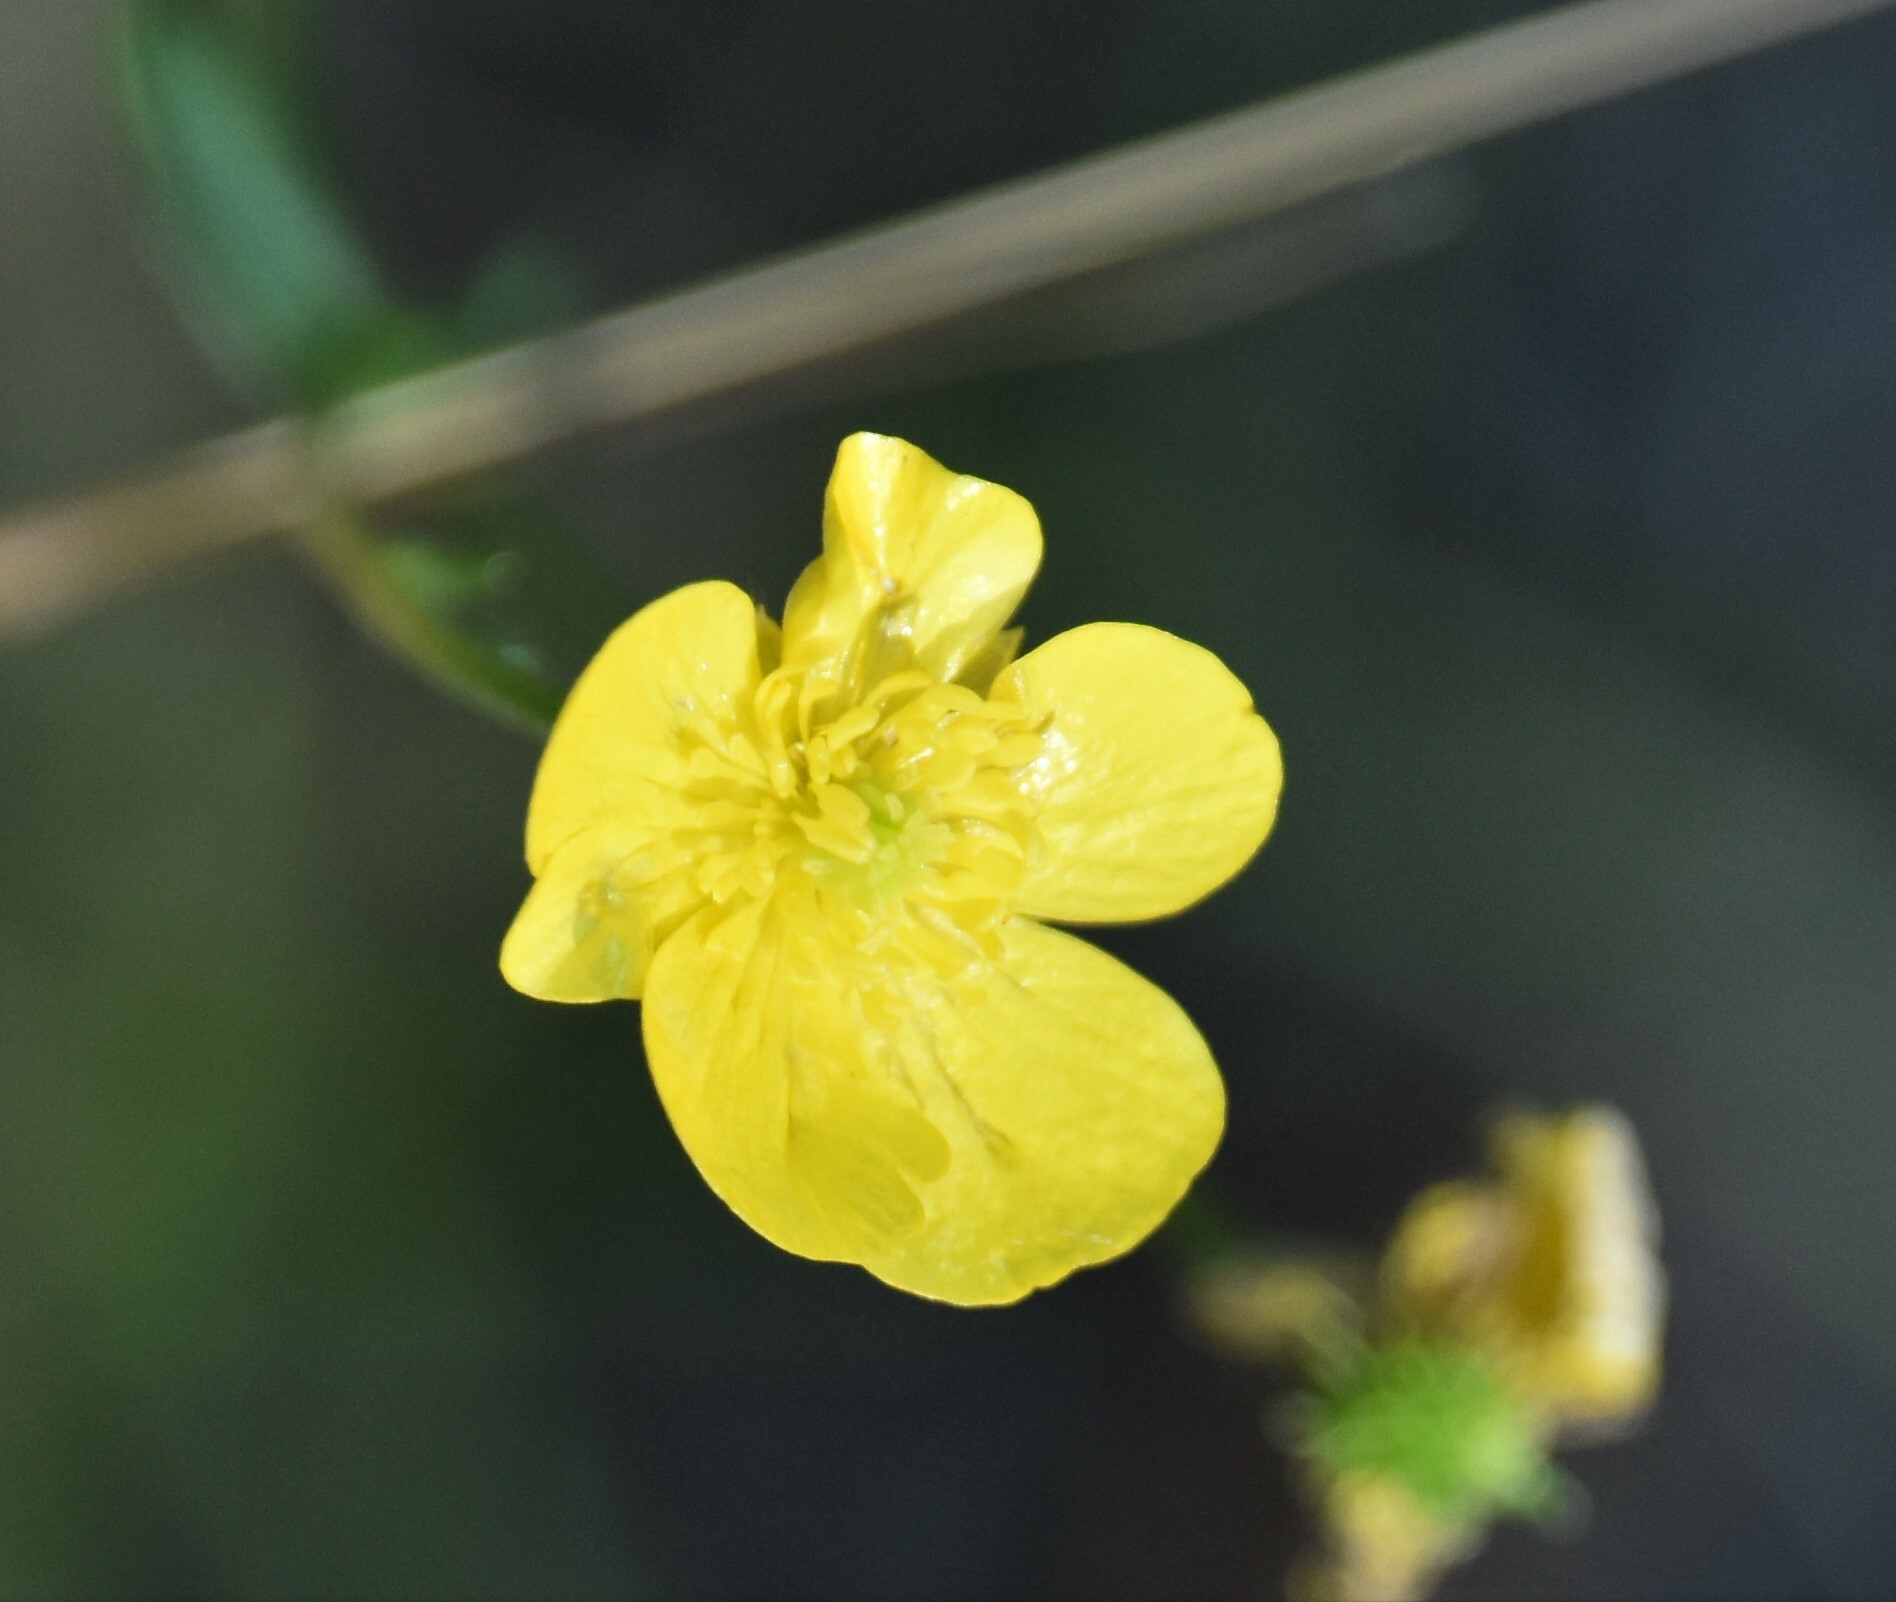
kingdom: Plantae
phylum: Tracheophyta
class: Magnoliopsida
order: Ranunculales
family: Ranunculaceae
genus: Ranunculus
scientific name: Ranunculus acris
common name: Meadow buttercup
